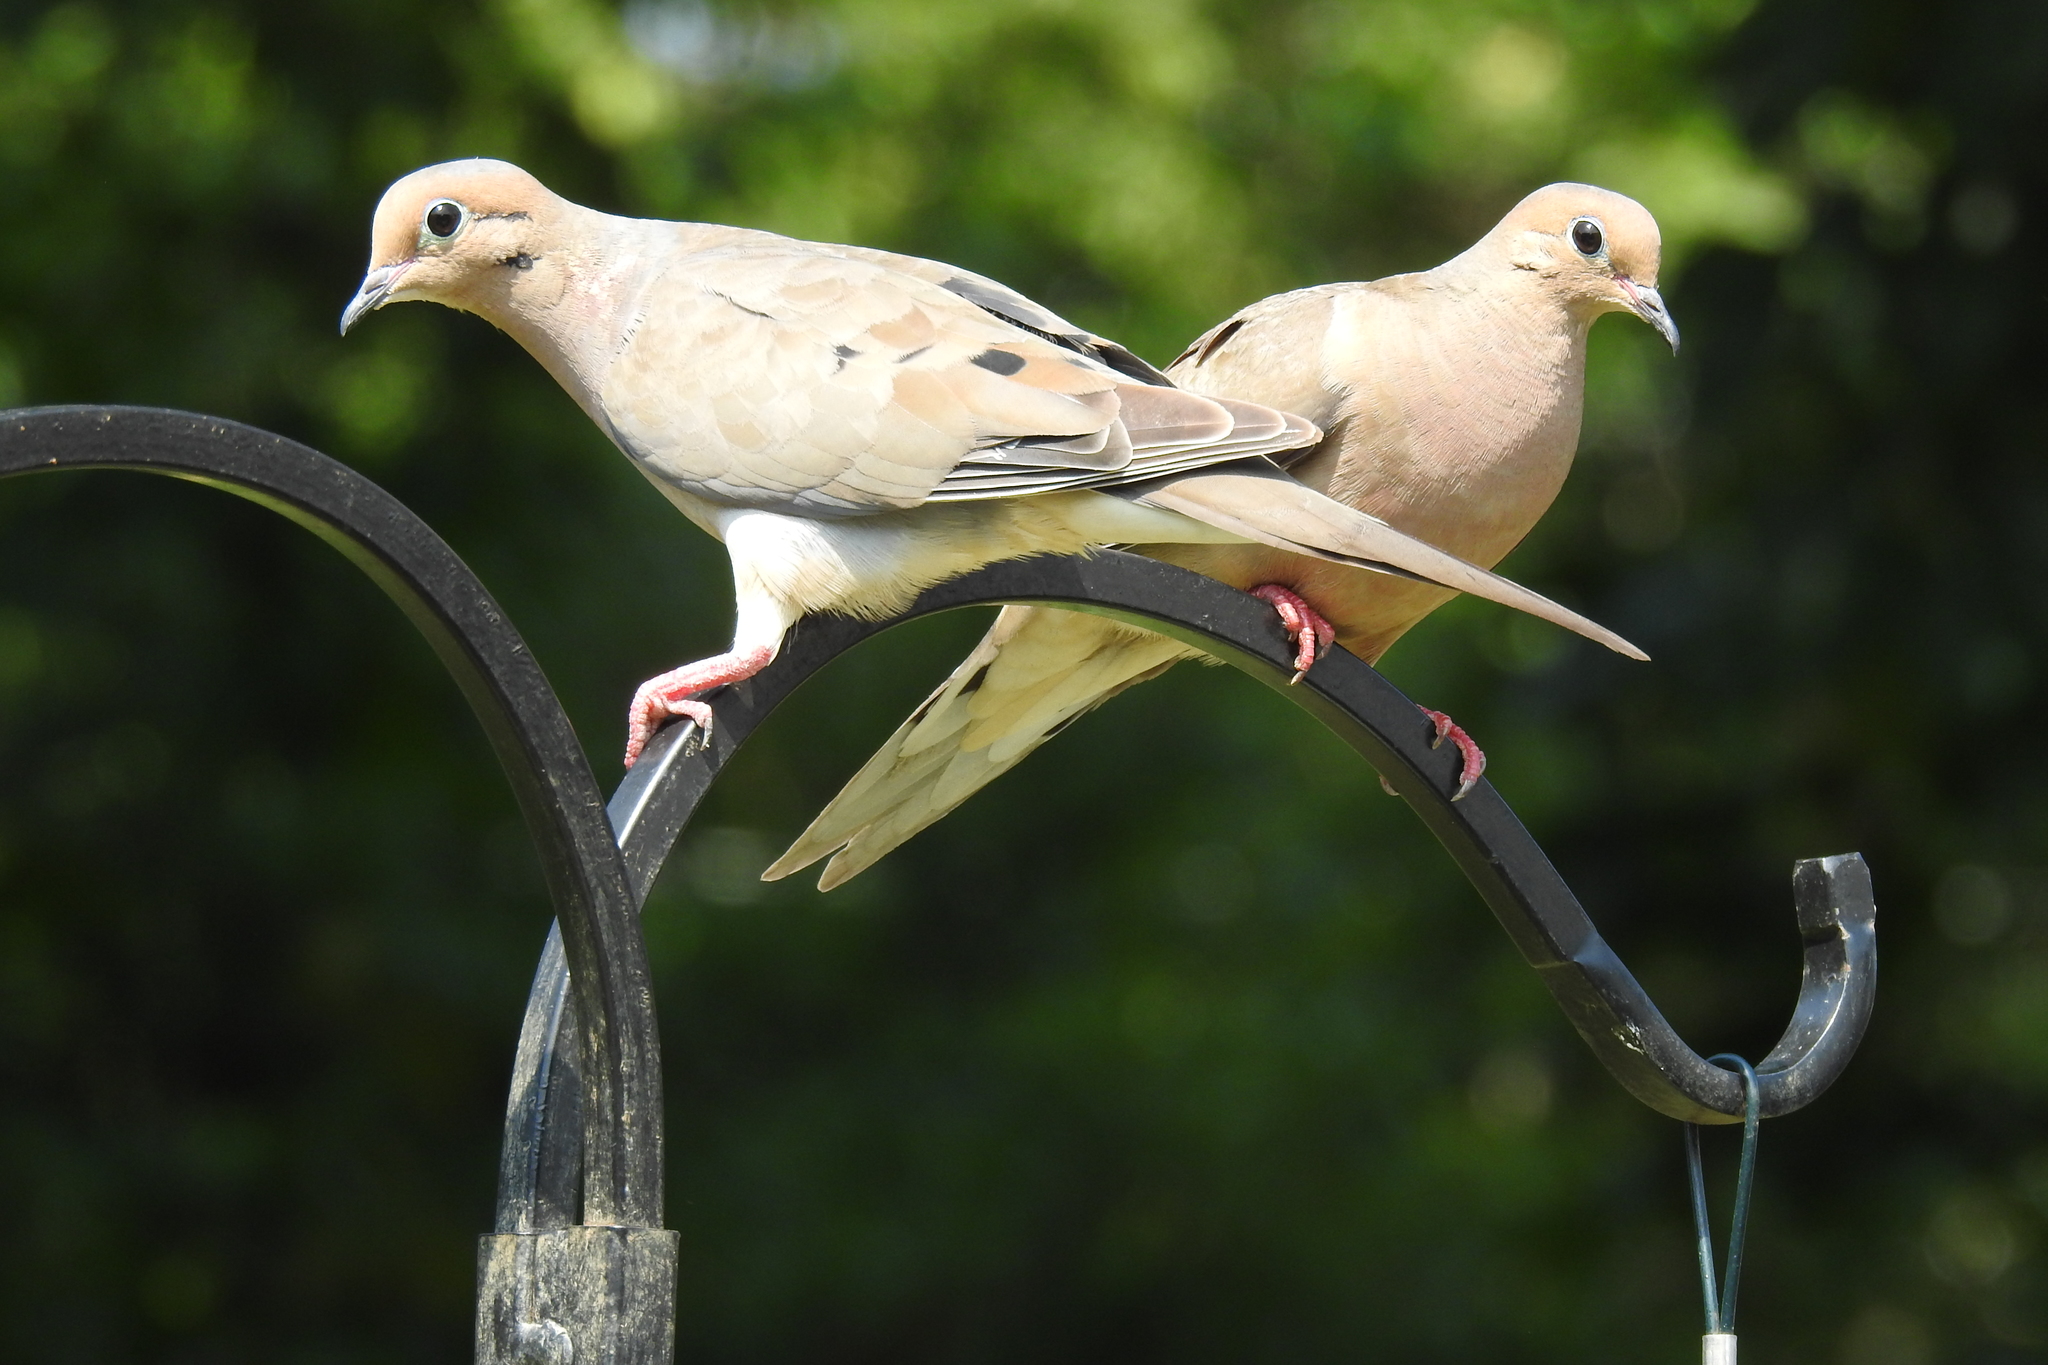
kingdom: Animalia
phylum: Chordata
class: Aves
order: Columbiformes
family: Columbidae
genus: Zenaida
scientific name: Zenaida macroura
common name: Mourning dove
